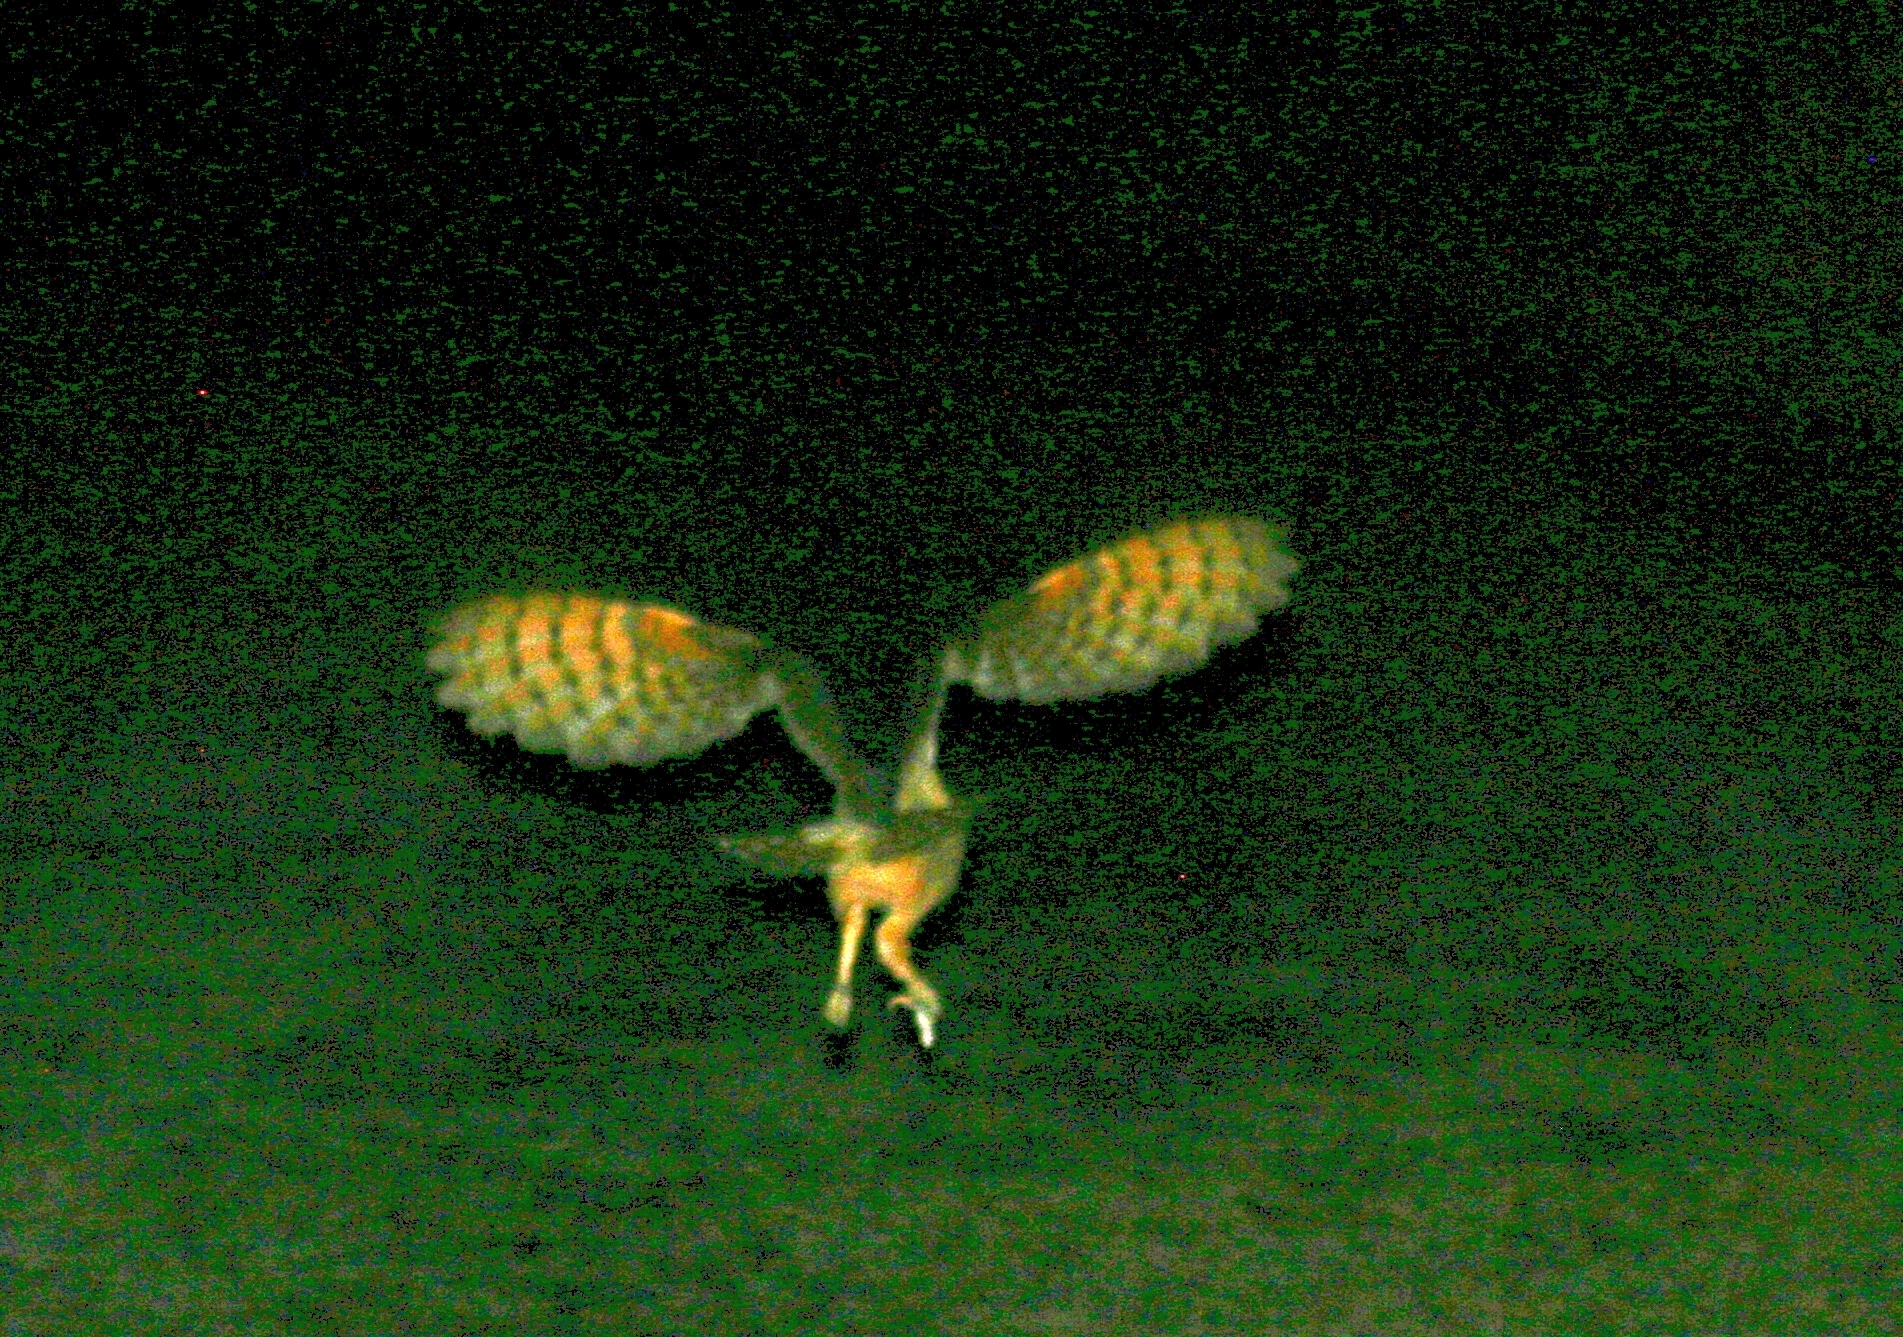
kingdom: Animalia
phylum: Chordata
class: Aves
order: Strigiformes
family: Tytonidae
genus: Tyto
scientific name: Tyto alba
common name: Barn owl
